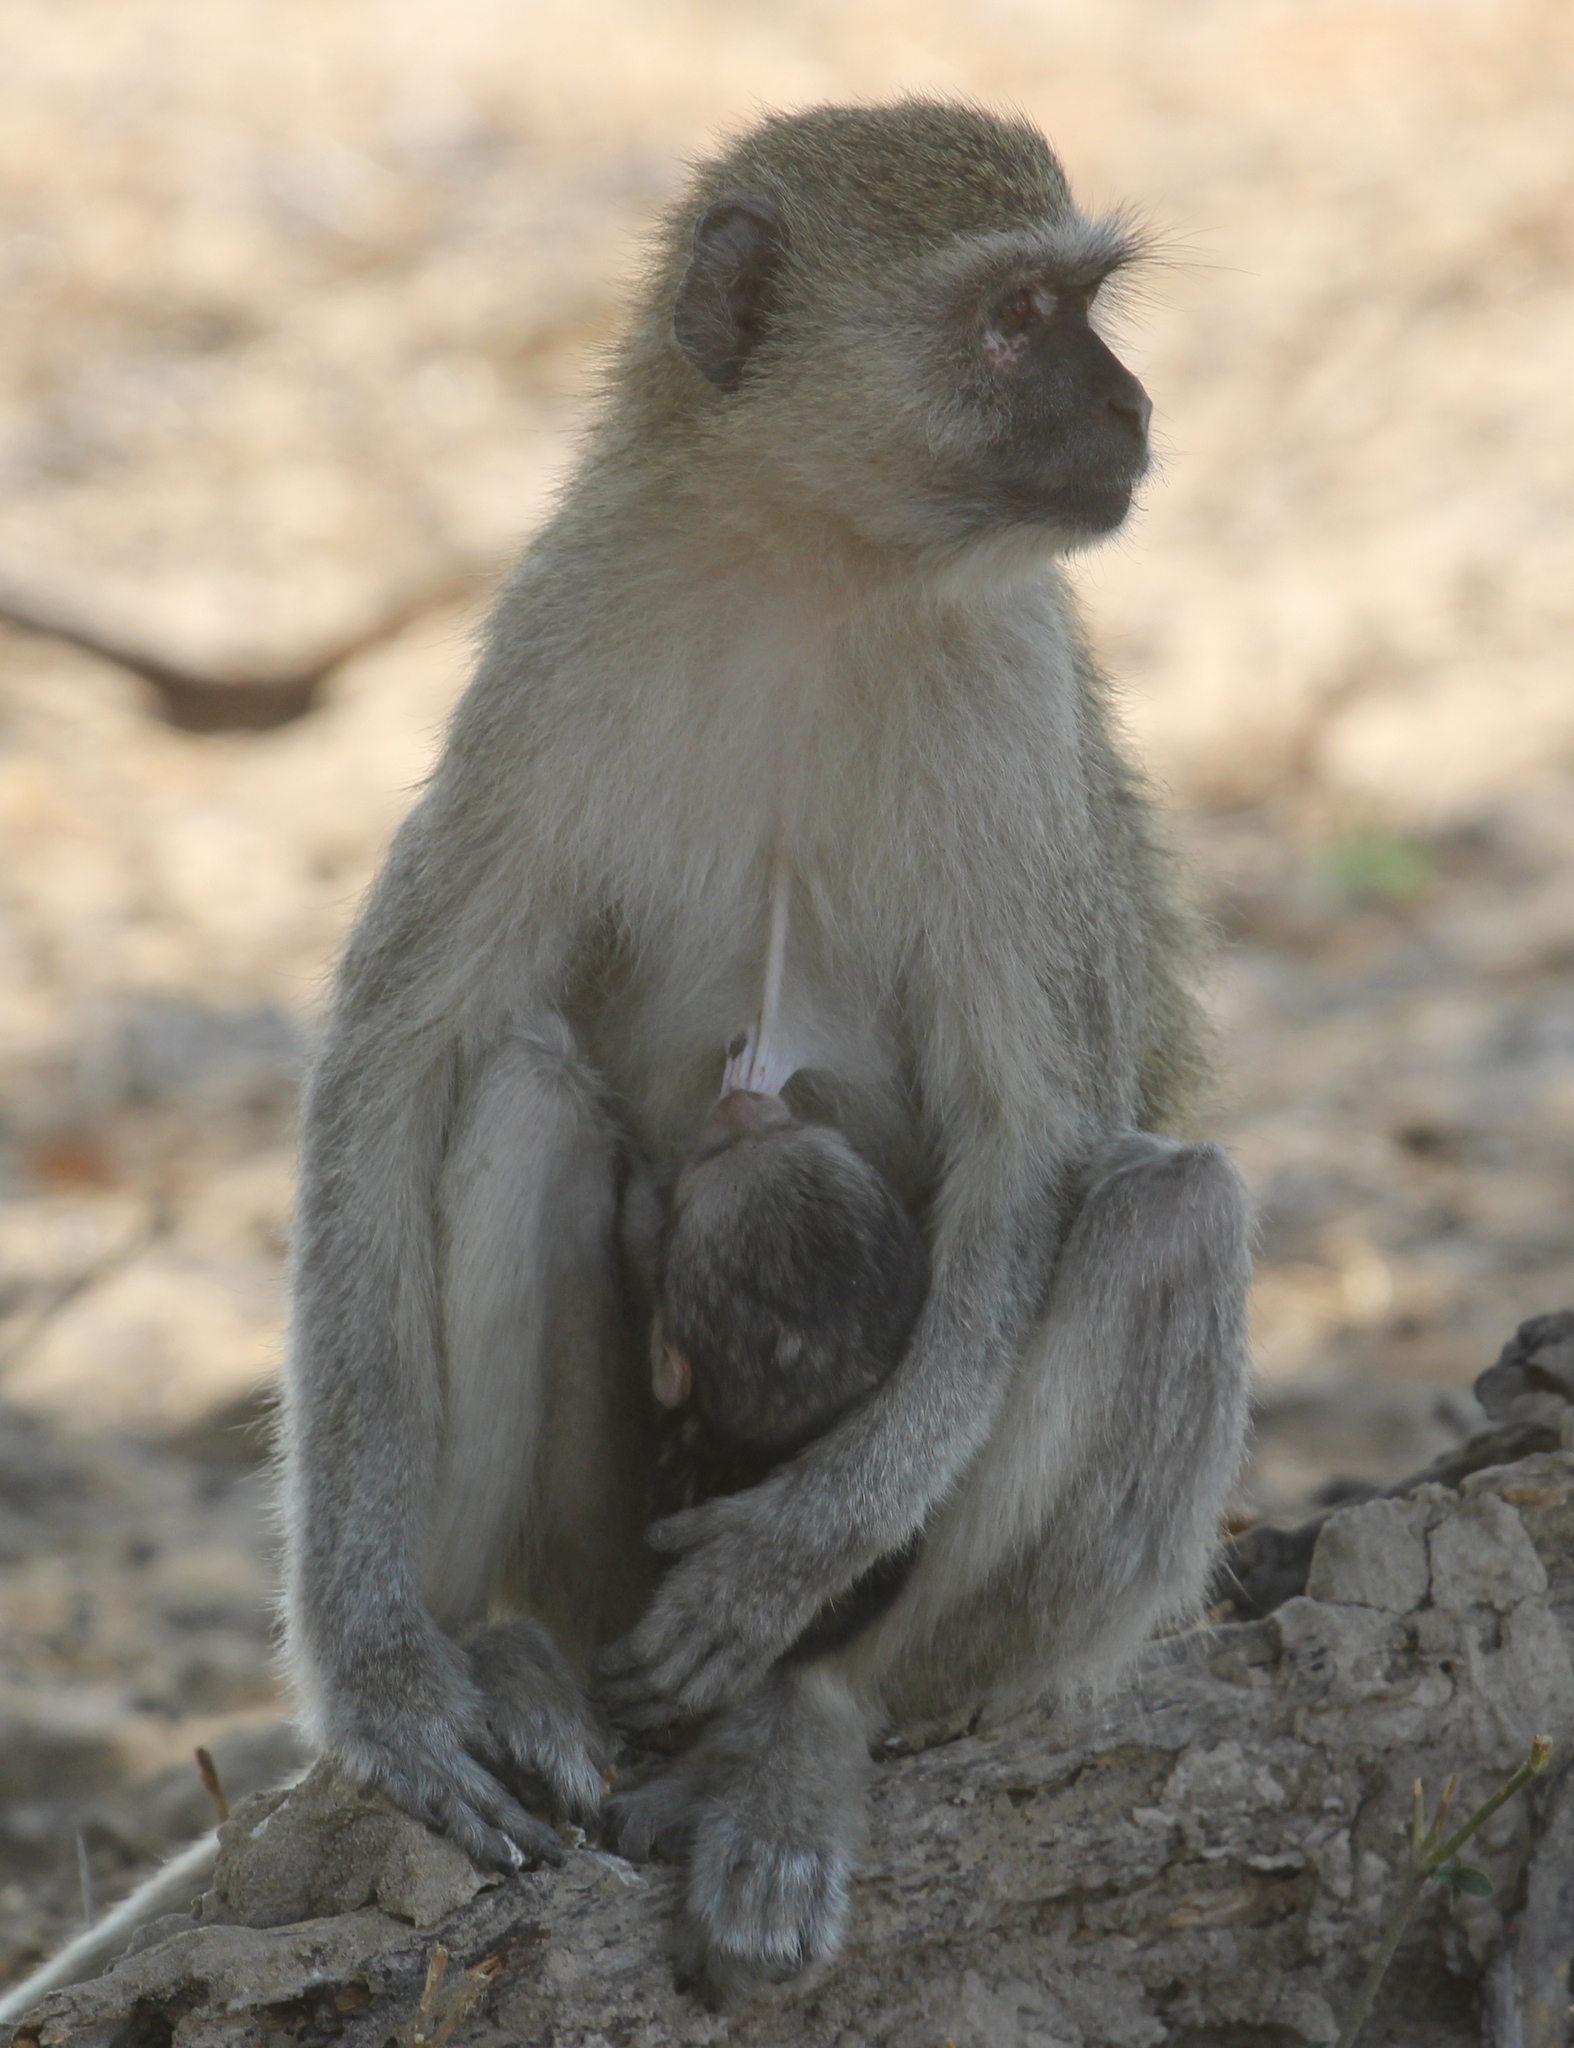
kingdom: Animalia
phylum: Chordata
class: Mammalia
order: Primates
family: Cercopithecidae
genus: Chlorocebus
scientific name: Chlorocebus pygerythrus
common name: Vervet monkey
